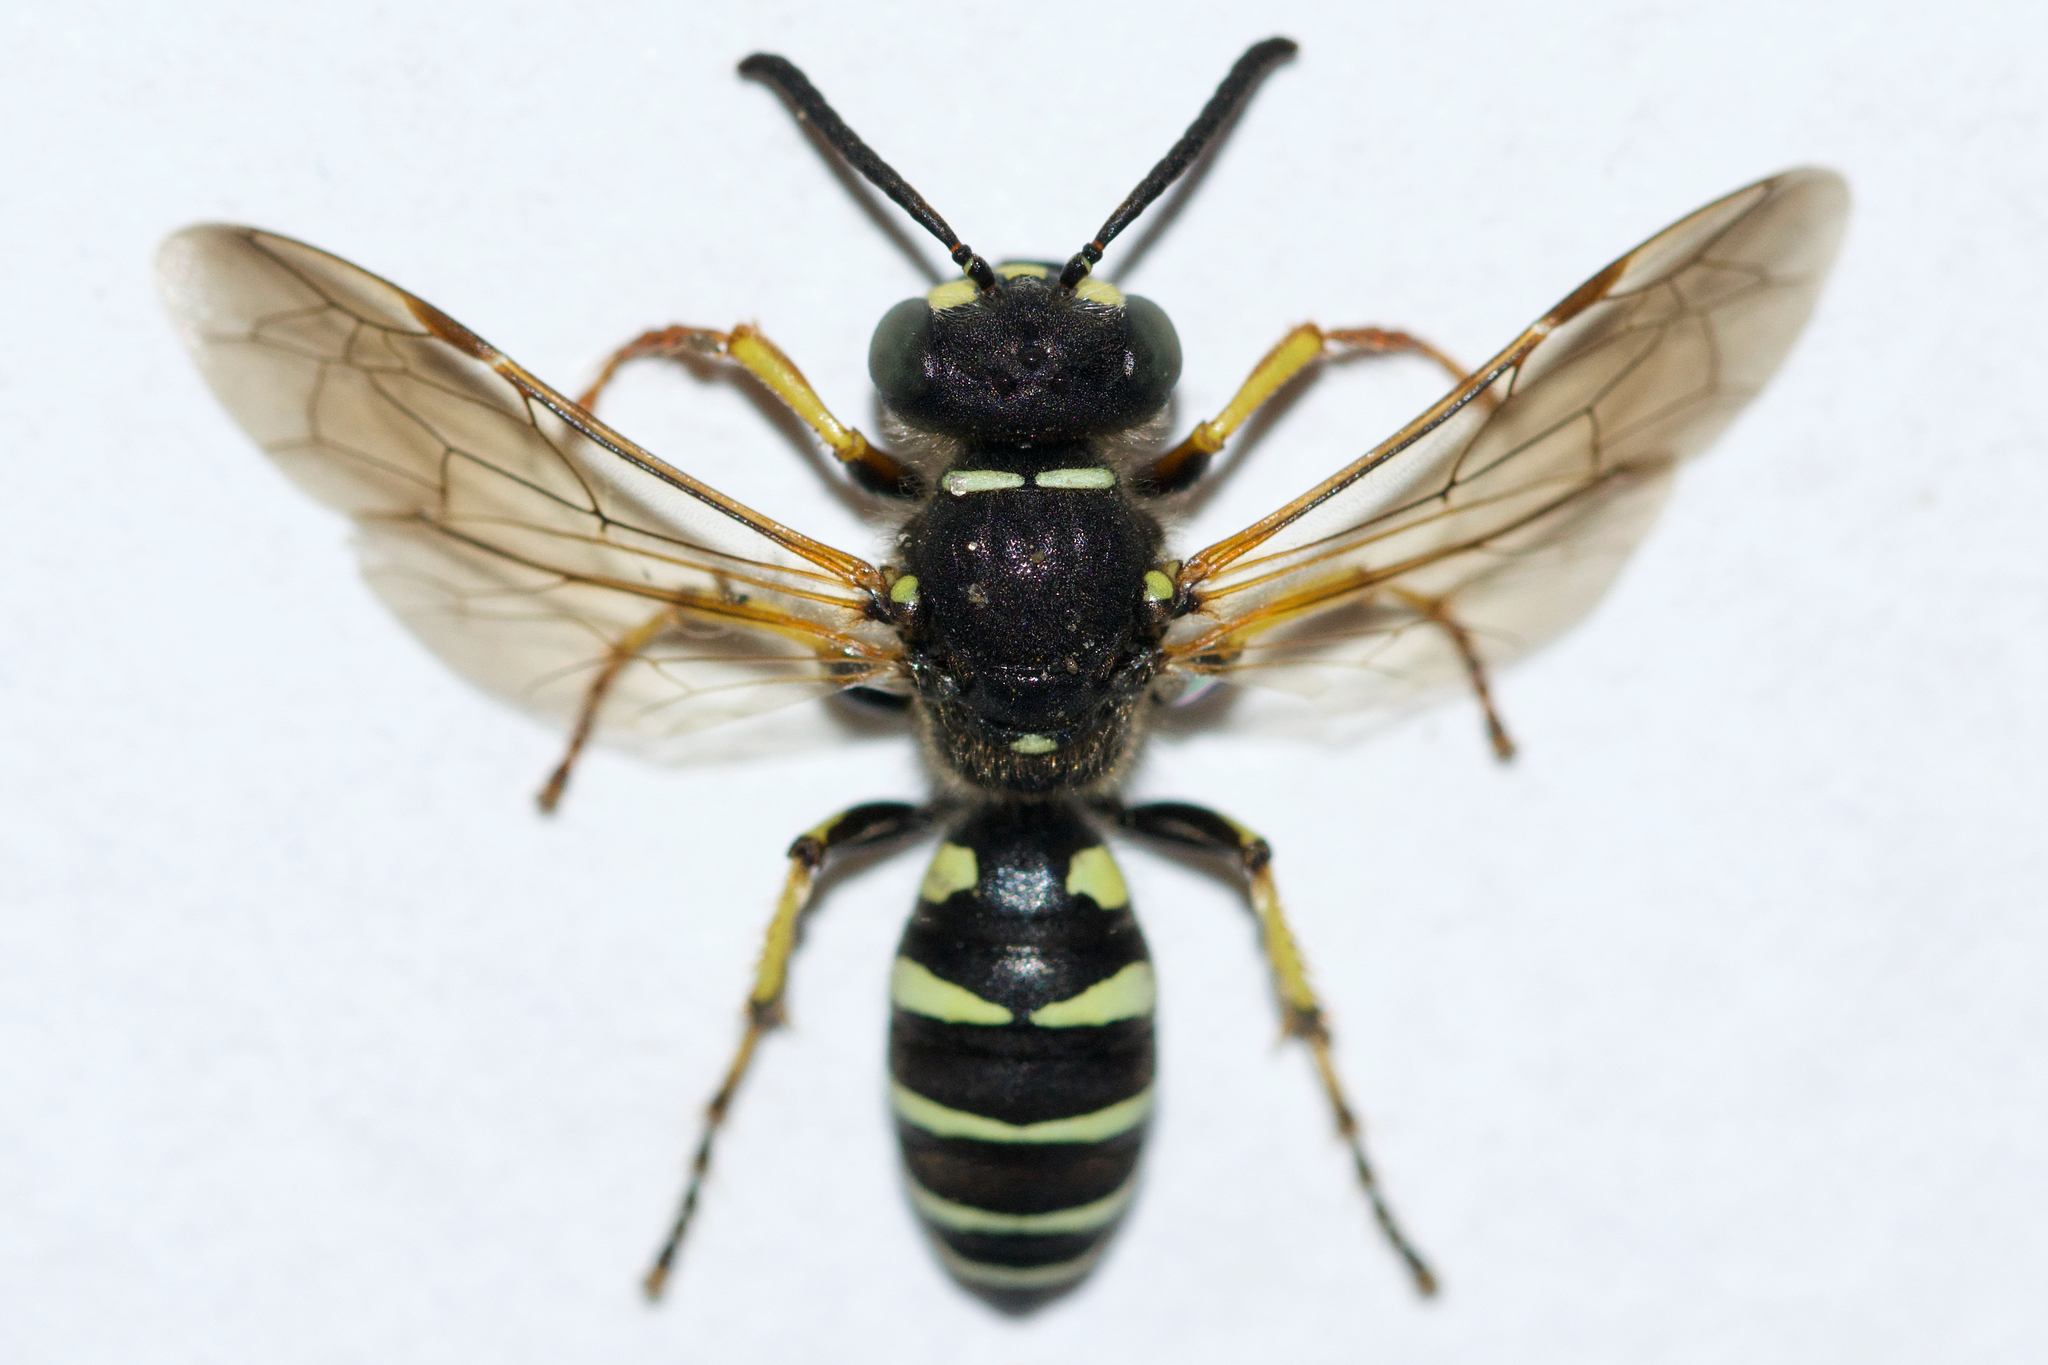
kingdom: Animalia
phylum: Arthropoda
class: Insecta
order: Hymenoptera
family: Crabronidae
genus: Aphilanthops
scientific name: Aphilanthops frigidus
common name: Queen ant kidnapper
